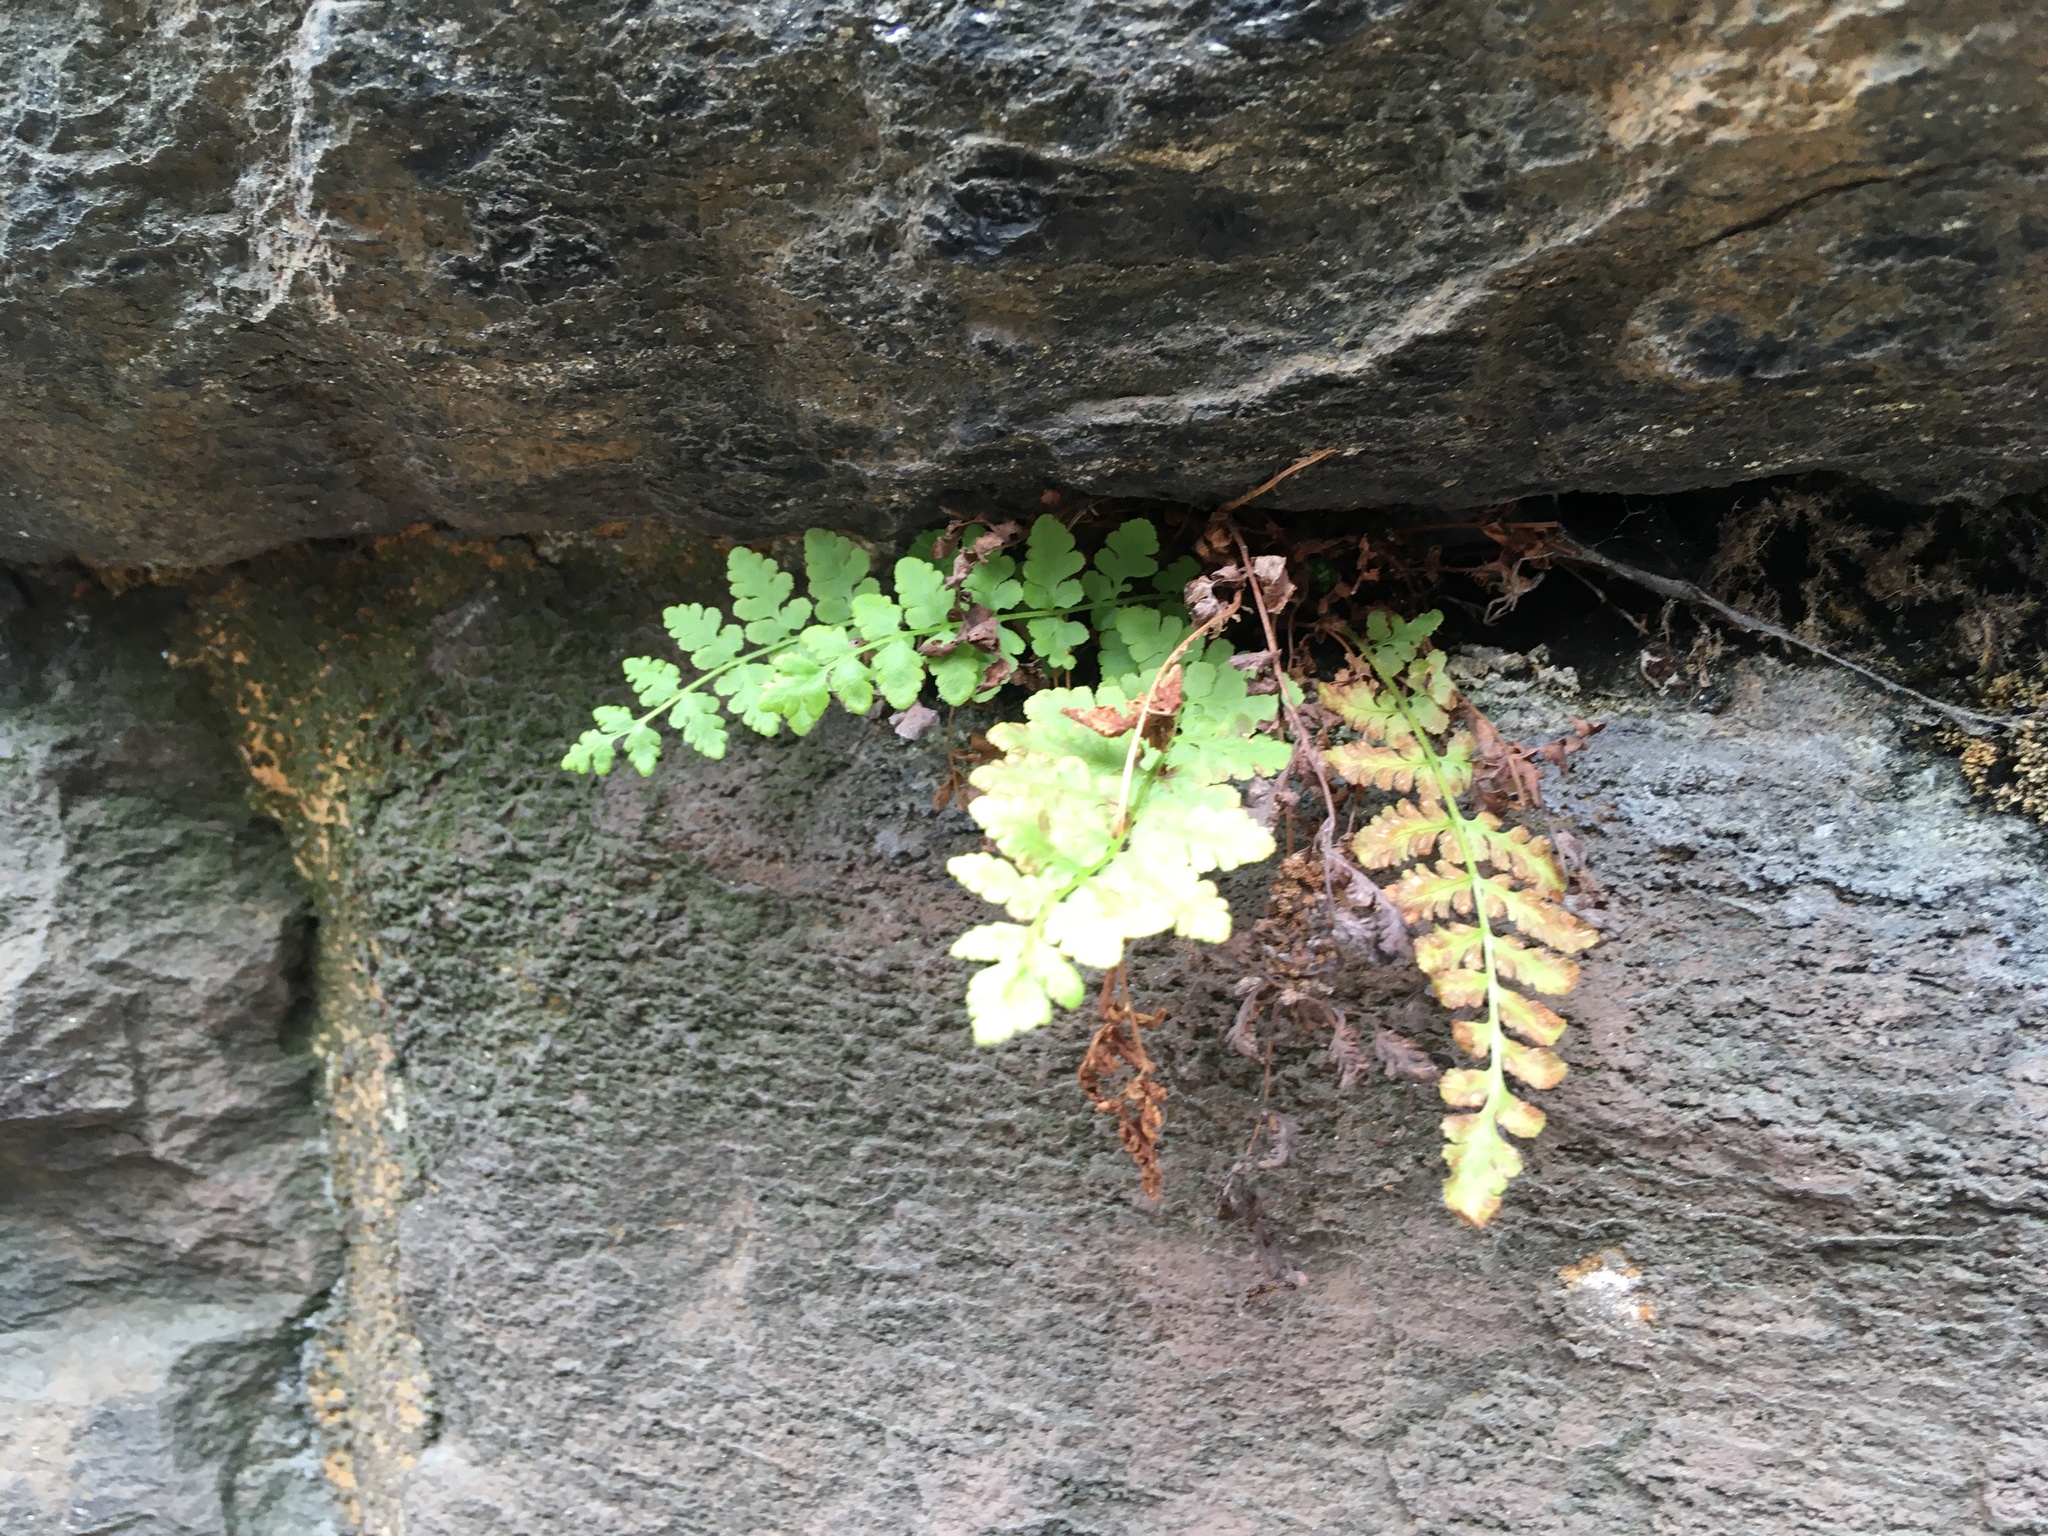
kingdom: Plantae
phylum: Tracheophyta
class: Polypodiopsida
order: Polypodiales
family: Woodsiaceae
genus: Physematium
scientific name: Physematium obtusum
